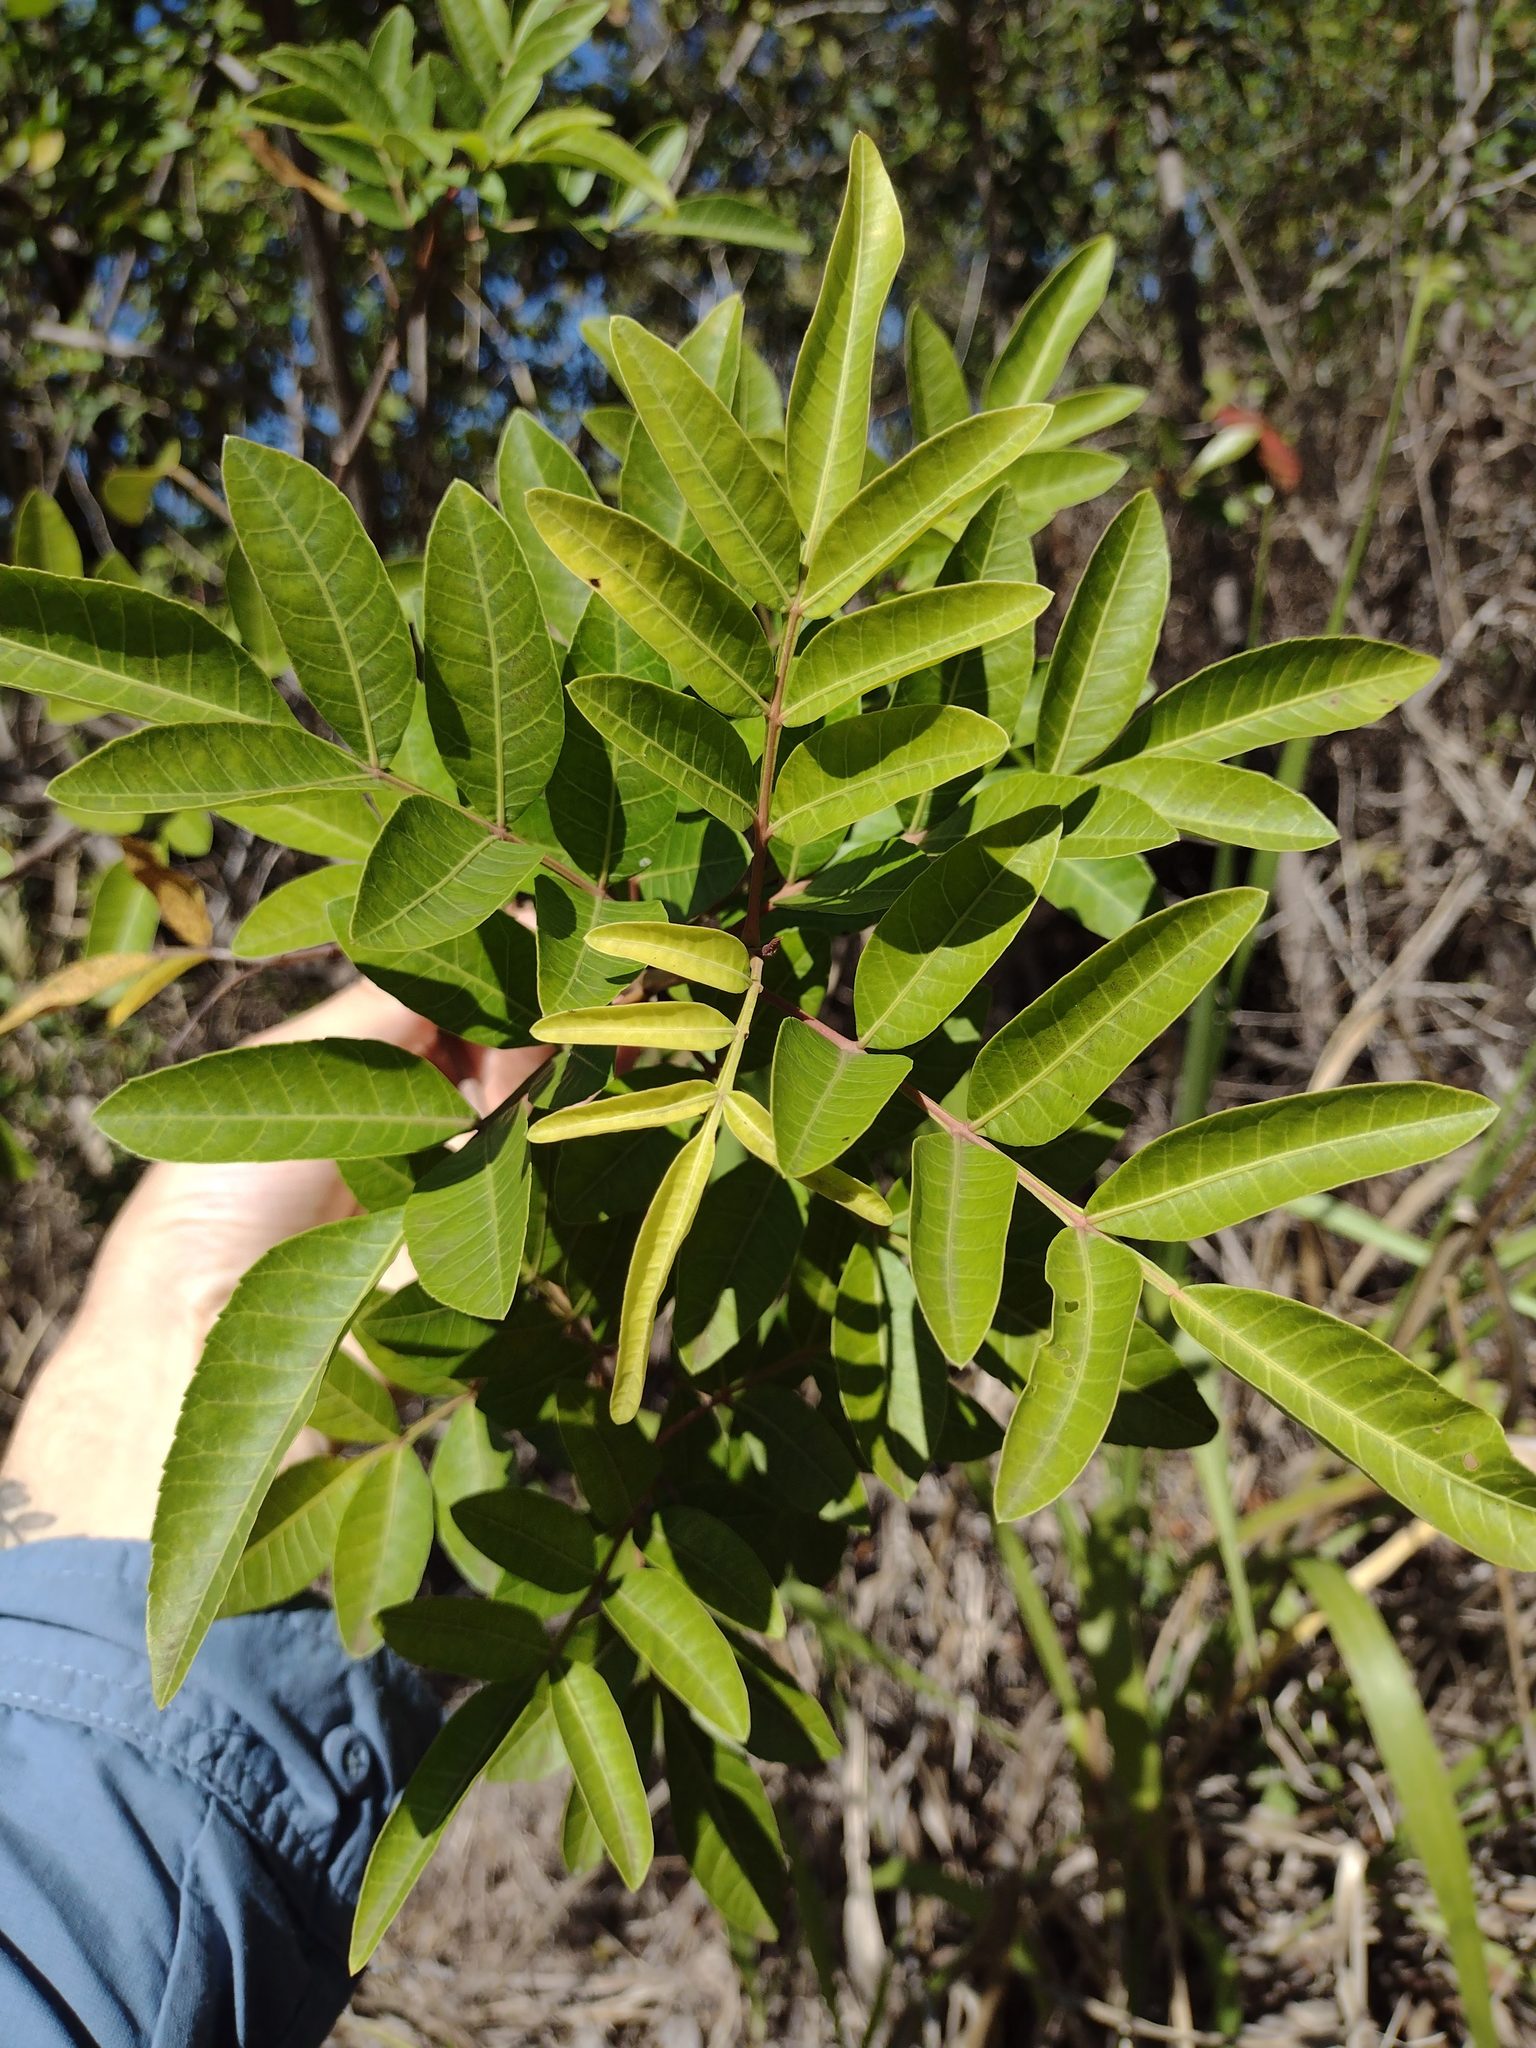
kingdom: Plantae
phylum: Tracheophyta
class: Magnoliopsida
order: Sapindales
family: Anacardiaceae
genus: Schinus
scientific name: Schinus terebinthifolia
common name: Brazilian peppertree
